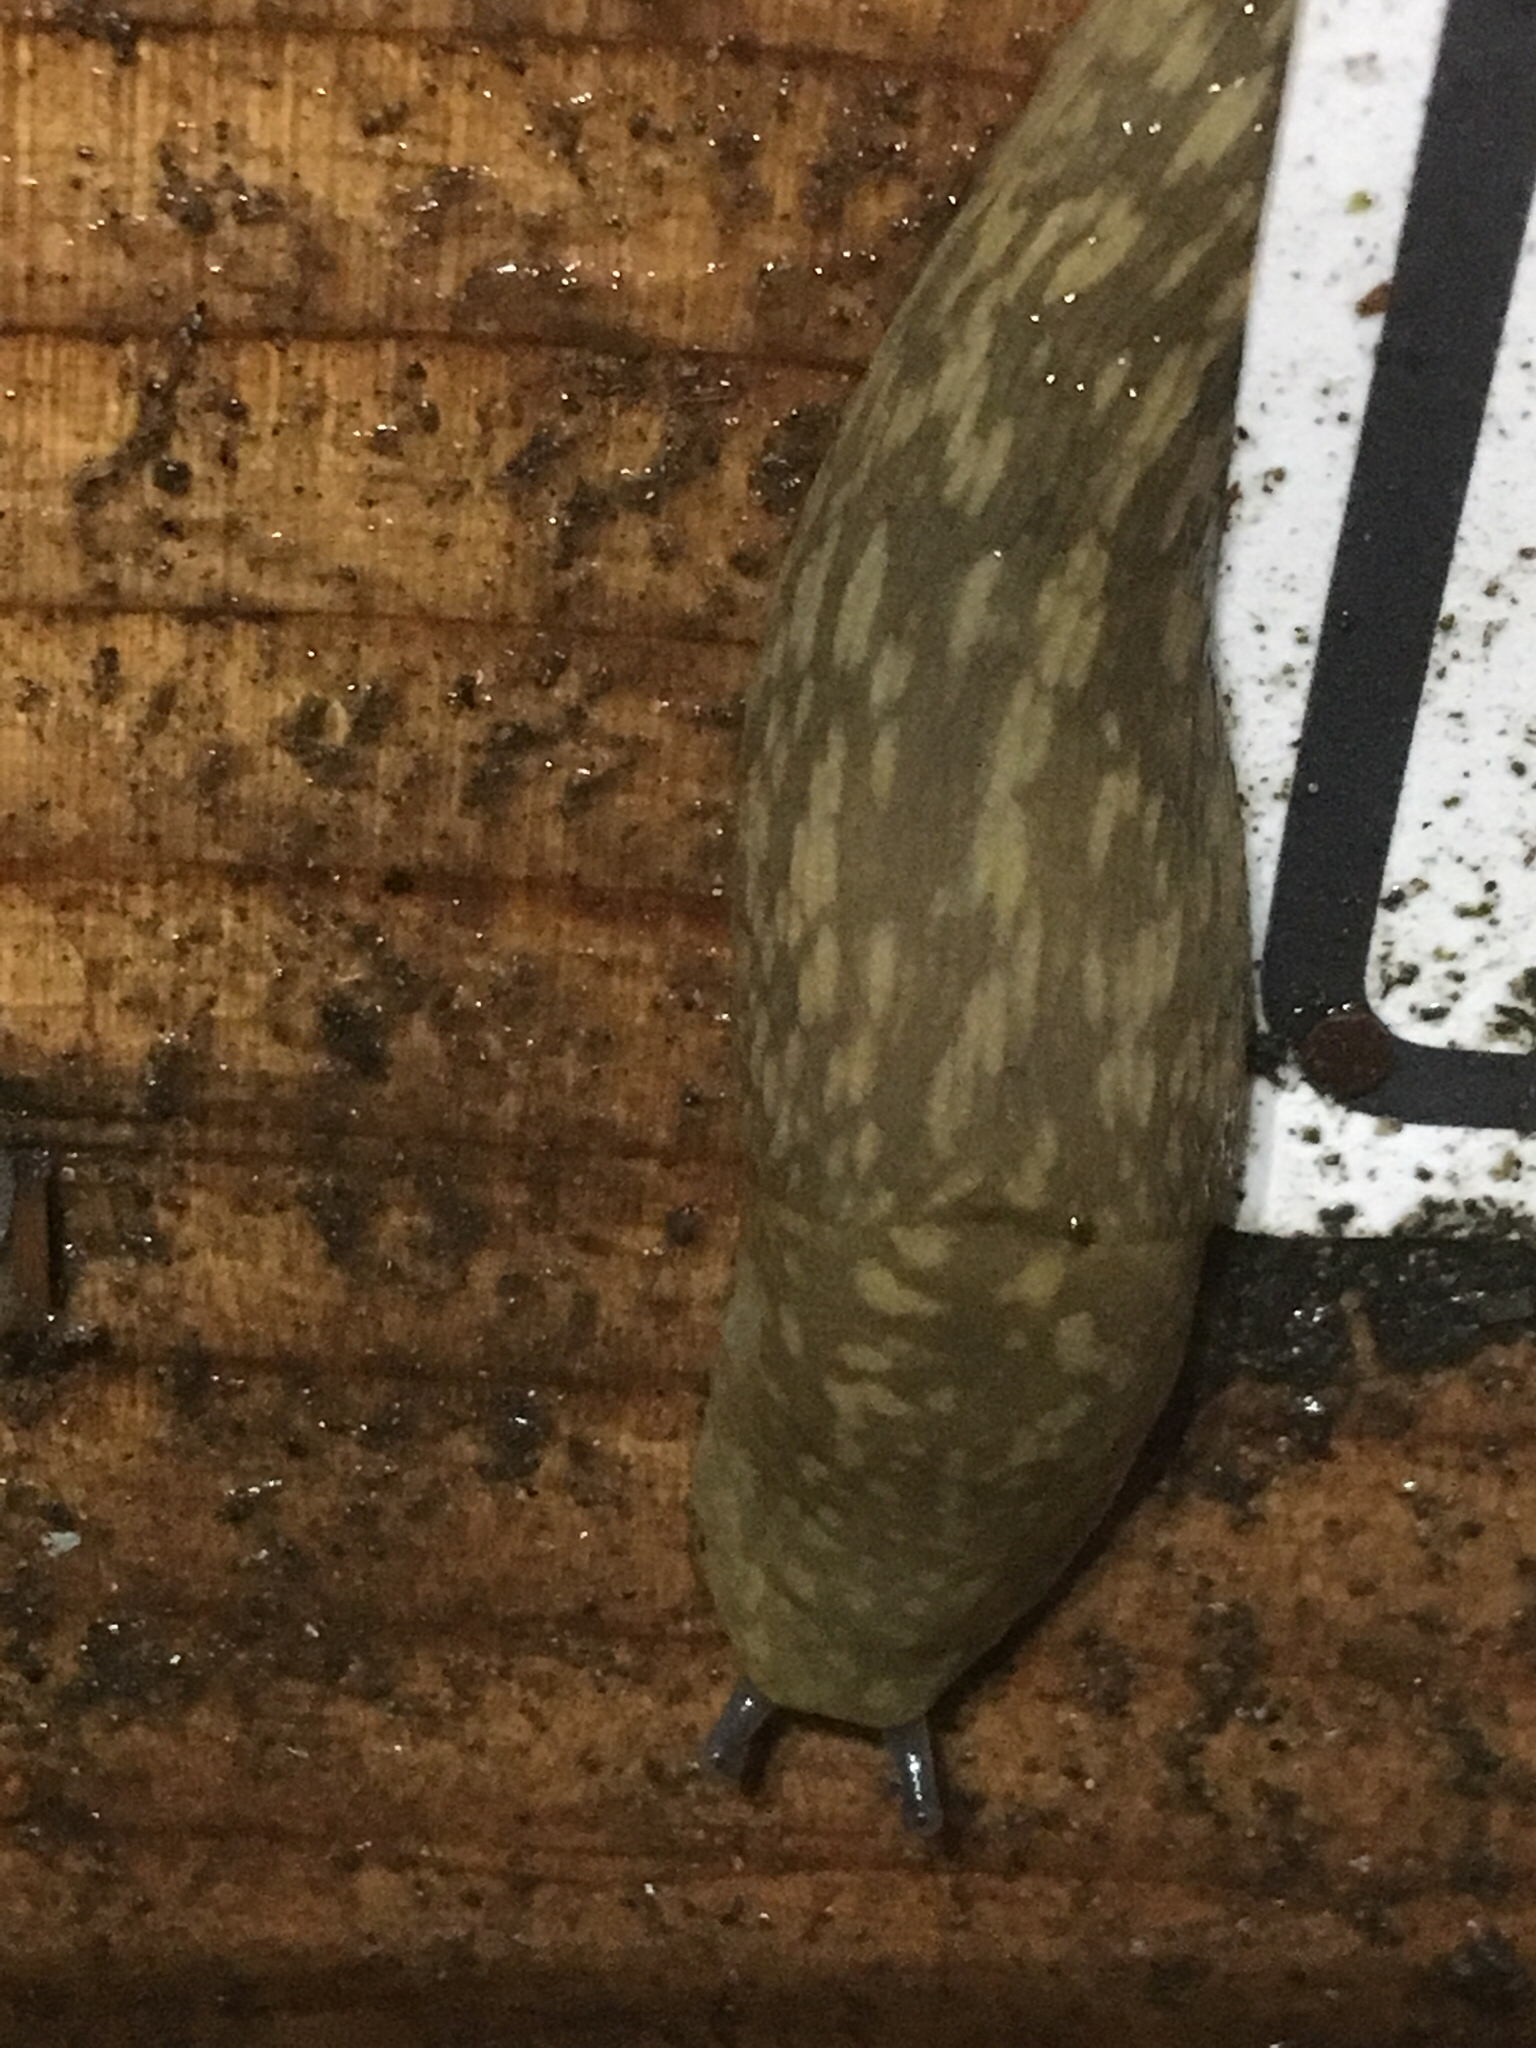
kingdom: Animalia
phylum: Mollusca
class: Gastropoda
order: Stylommatophora
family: Limacidae
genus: Limacus
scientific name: Limacus flavus
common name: Yellow gardenslug
